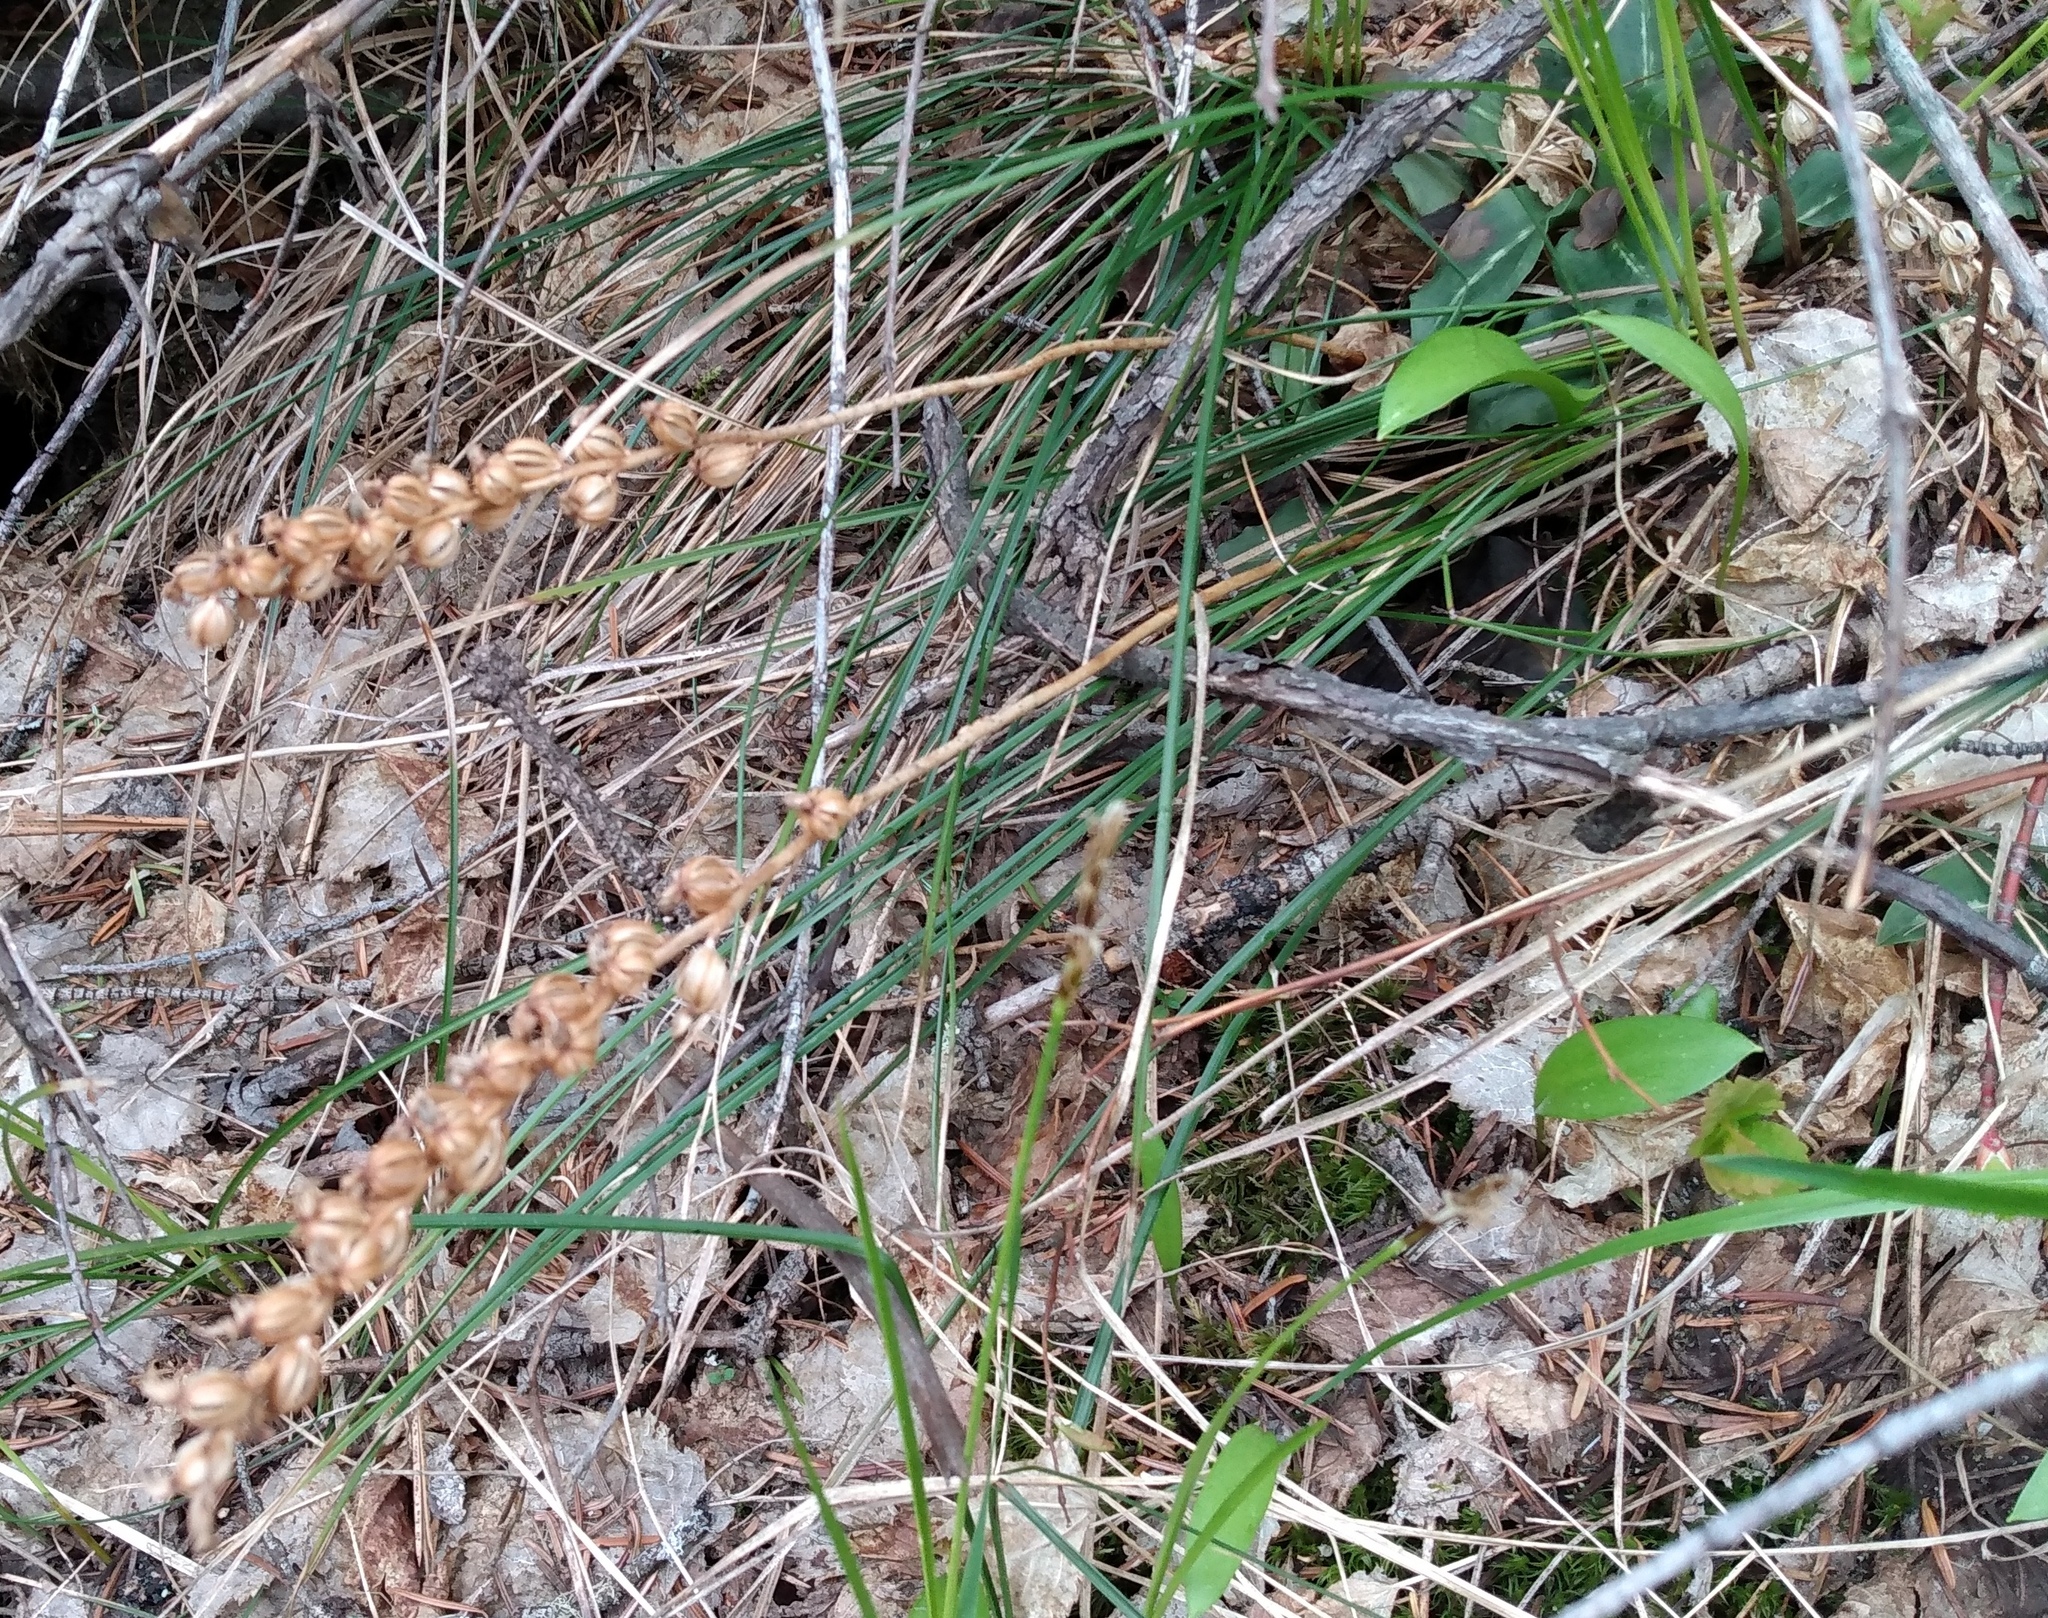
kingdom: Plantae
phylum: Tracheophyta
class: Liliopsida
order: Asparagales
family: Orchidaceae
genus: Goodyera
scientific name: Goodyera oblongifolia
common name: Giant rattlesnake-plantain
